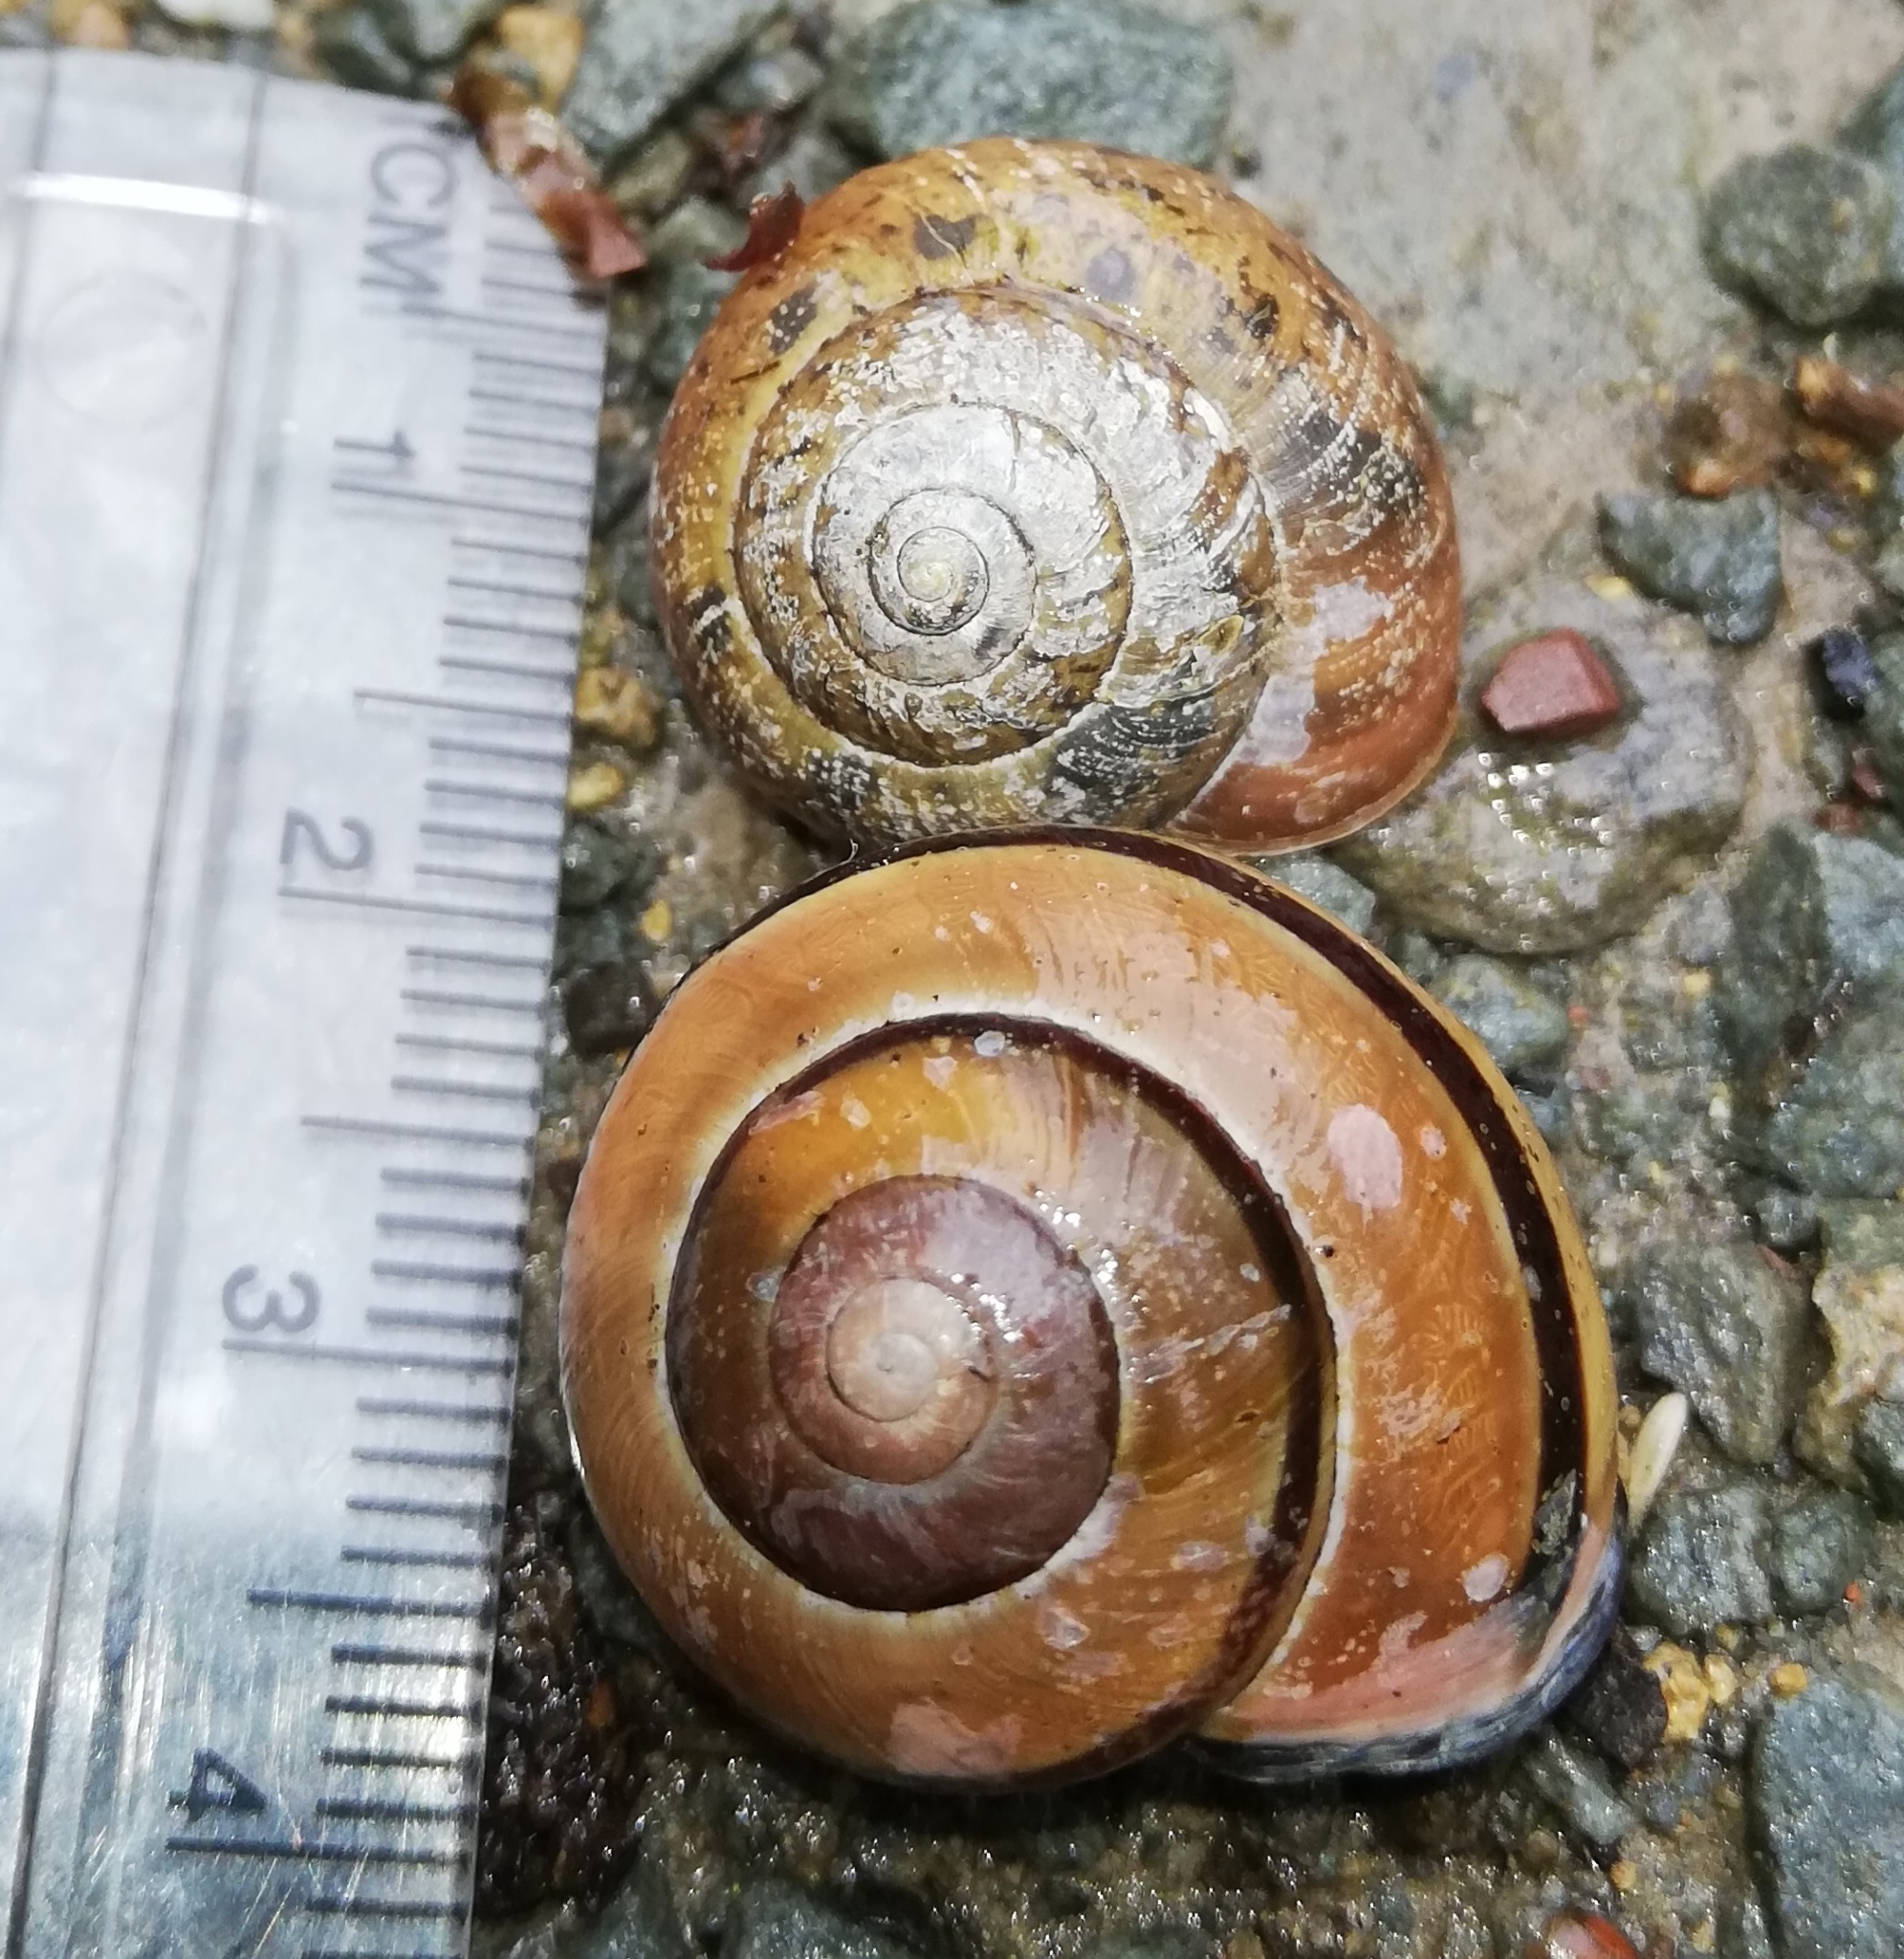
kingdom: Animalia
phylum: Mollusca
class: Gastropoda
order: Stylommatophora
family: Helicidae
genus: Cepaea
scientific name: Cepaea nemoralis
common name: Grovesnail
